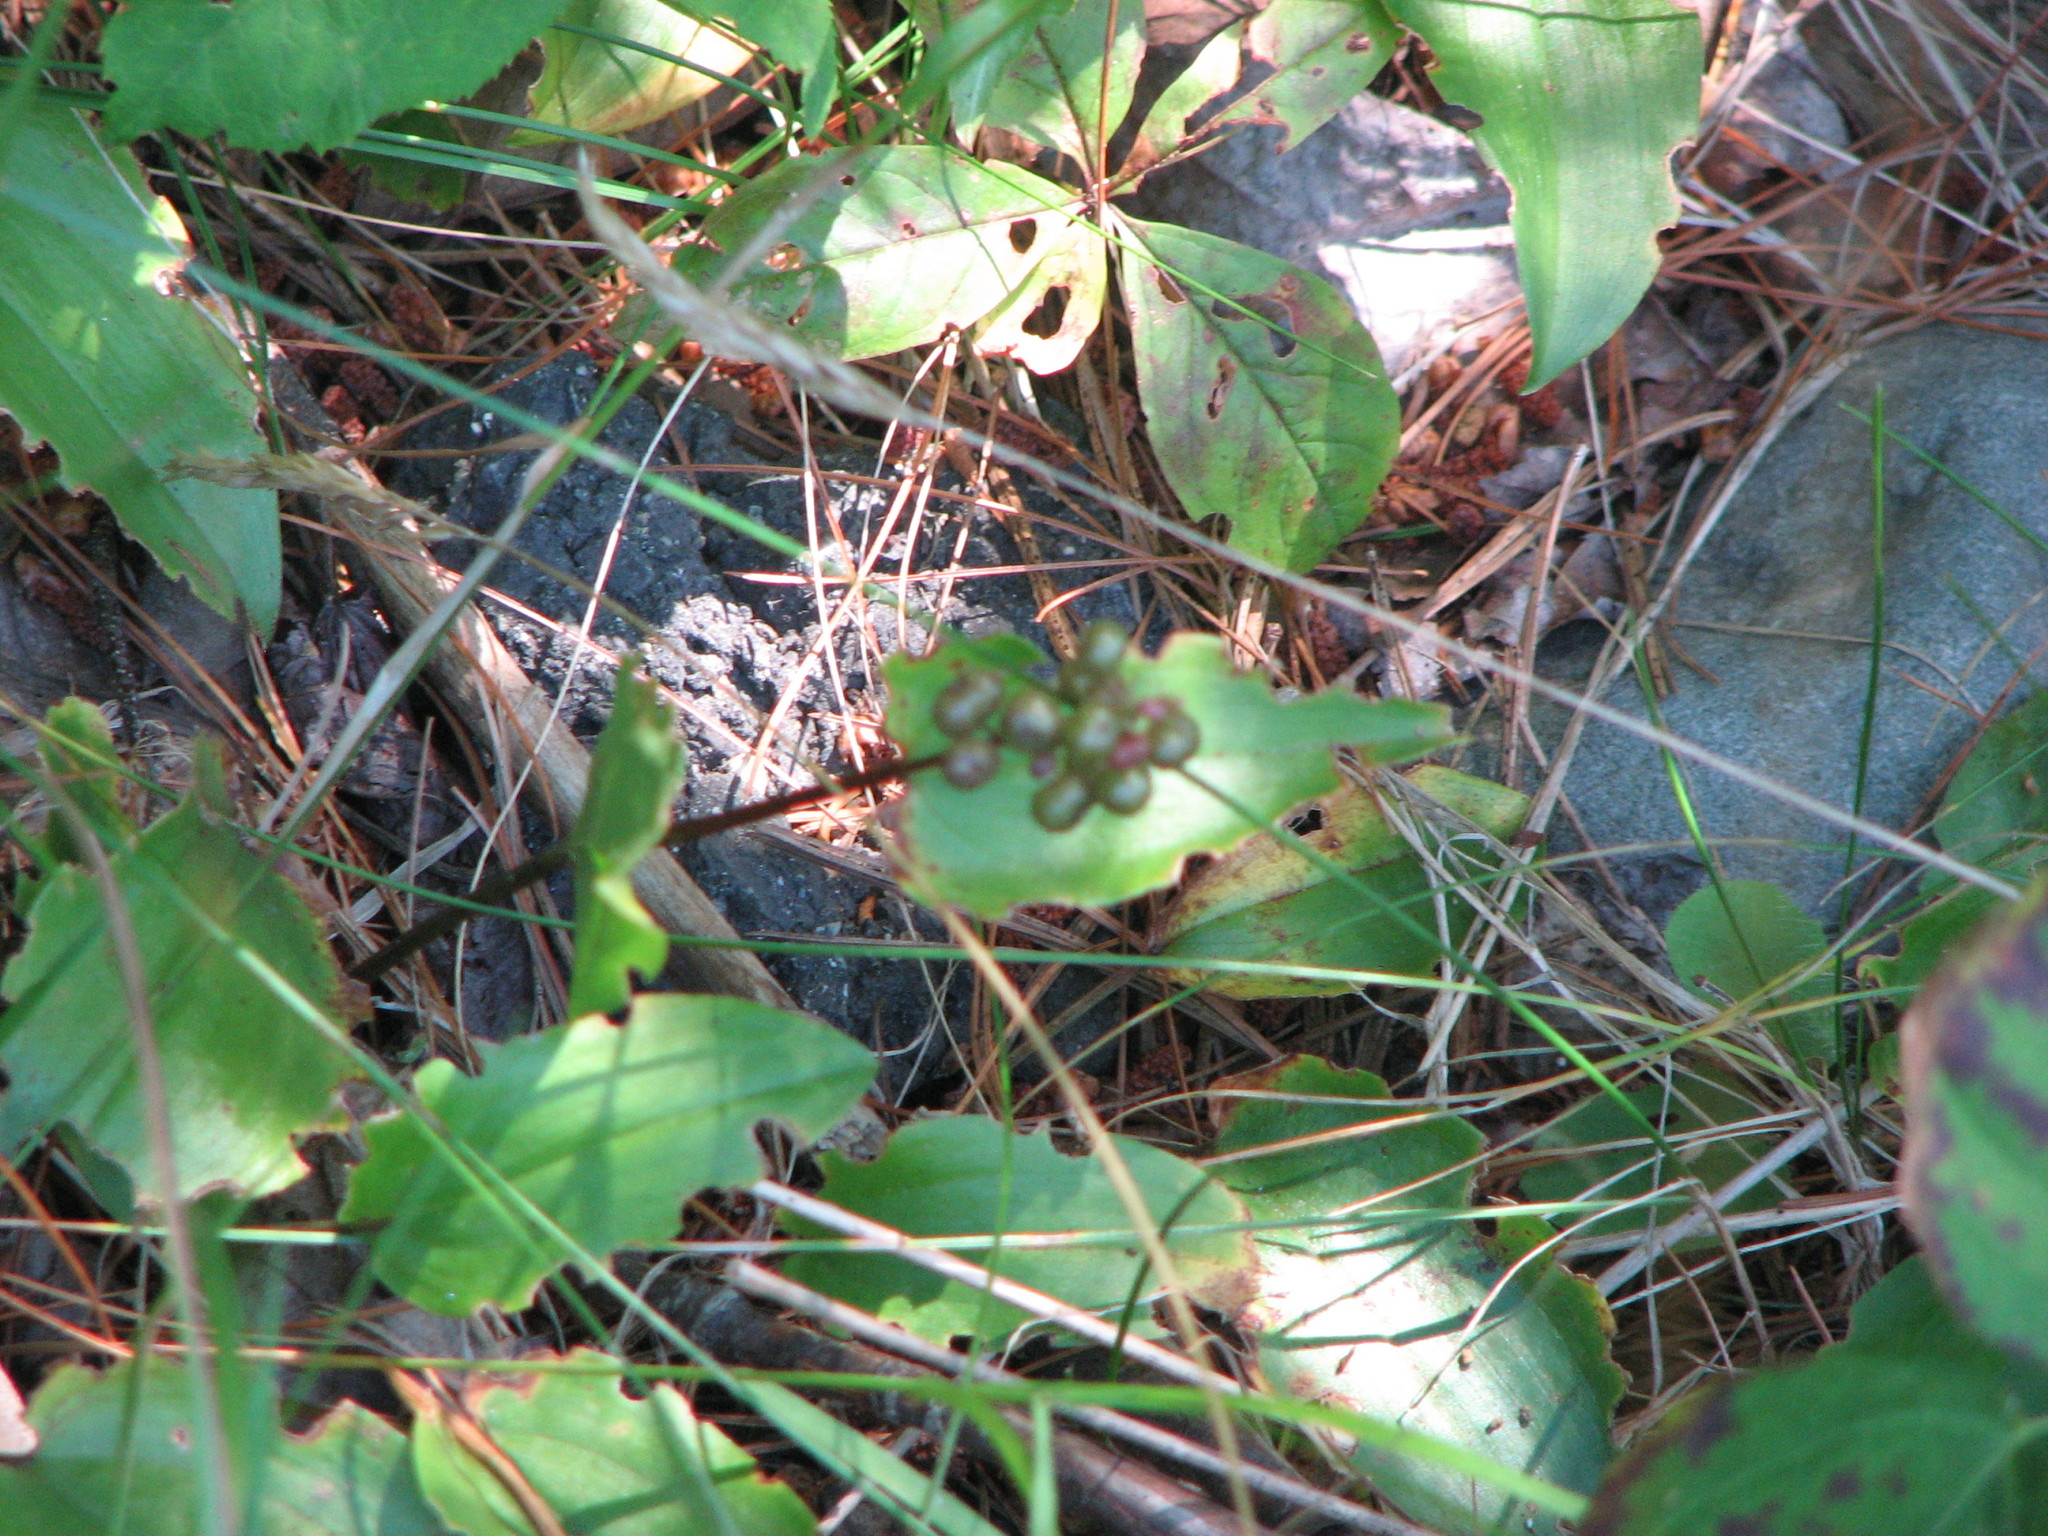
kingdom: Plantae
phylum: Tracheophyta
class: Liliopsida
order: Asparagales
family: Asparagaceae
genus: Maianthemum
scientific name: Maianthemum canadense
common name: False lily-of-the-valley
